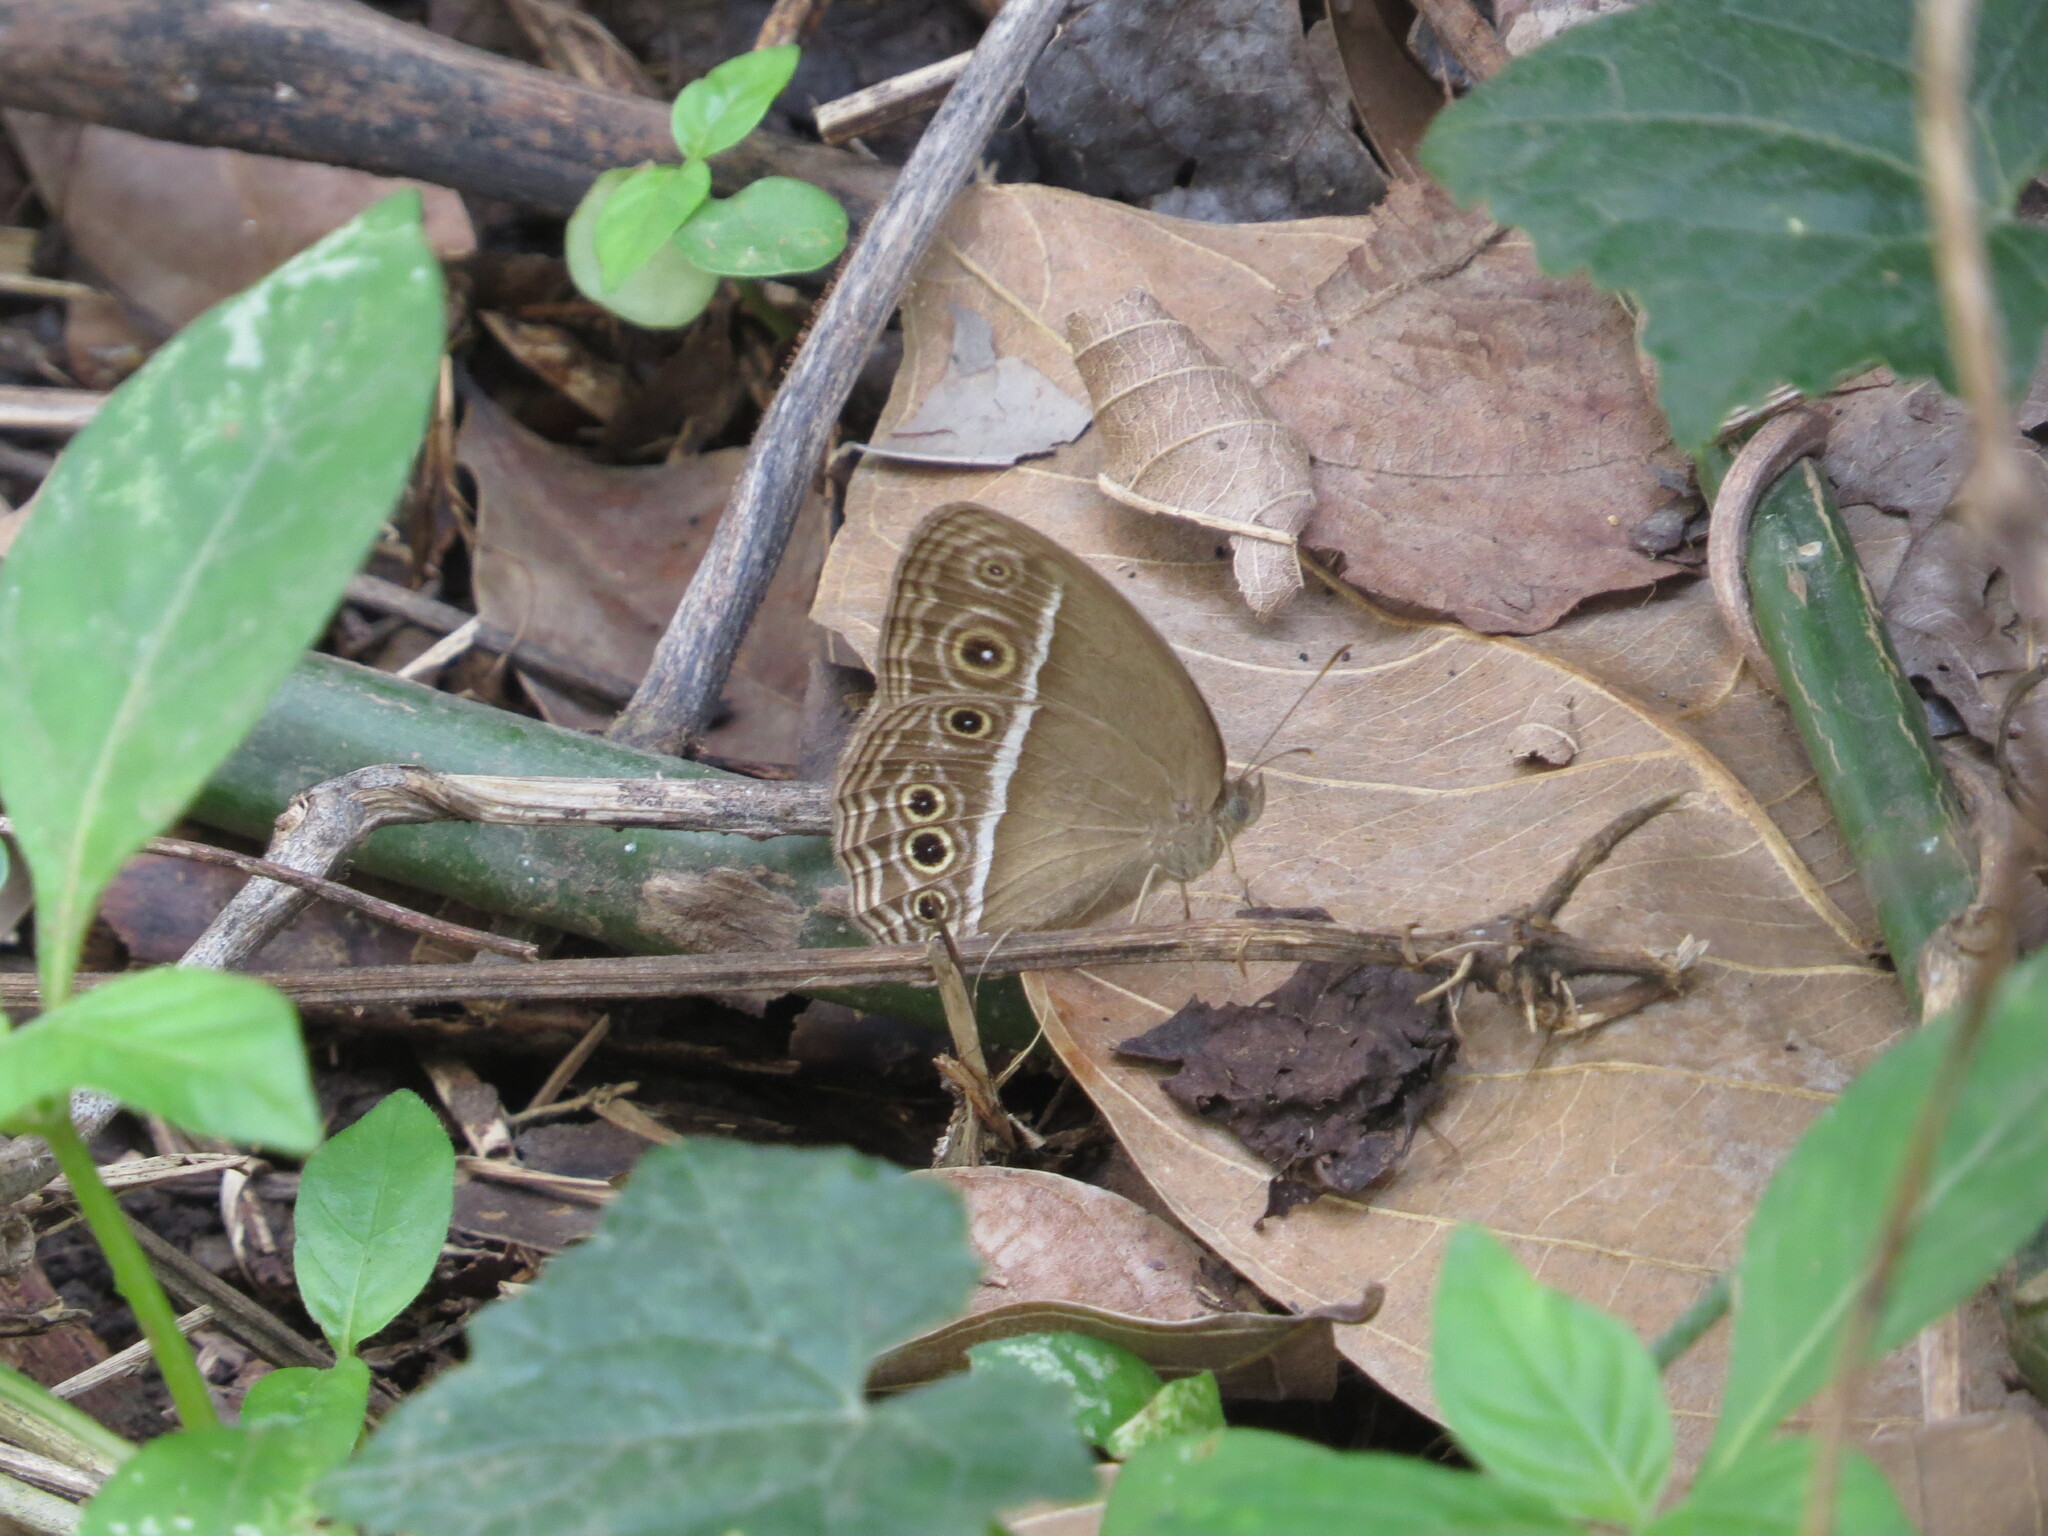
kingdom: Animalia
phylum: Arthropoda
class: Insecta
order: Lepidoptera
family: Nymphalidae
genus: Mycalesis
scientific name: Mycalesis mineus
